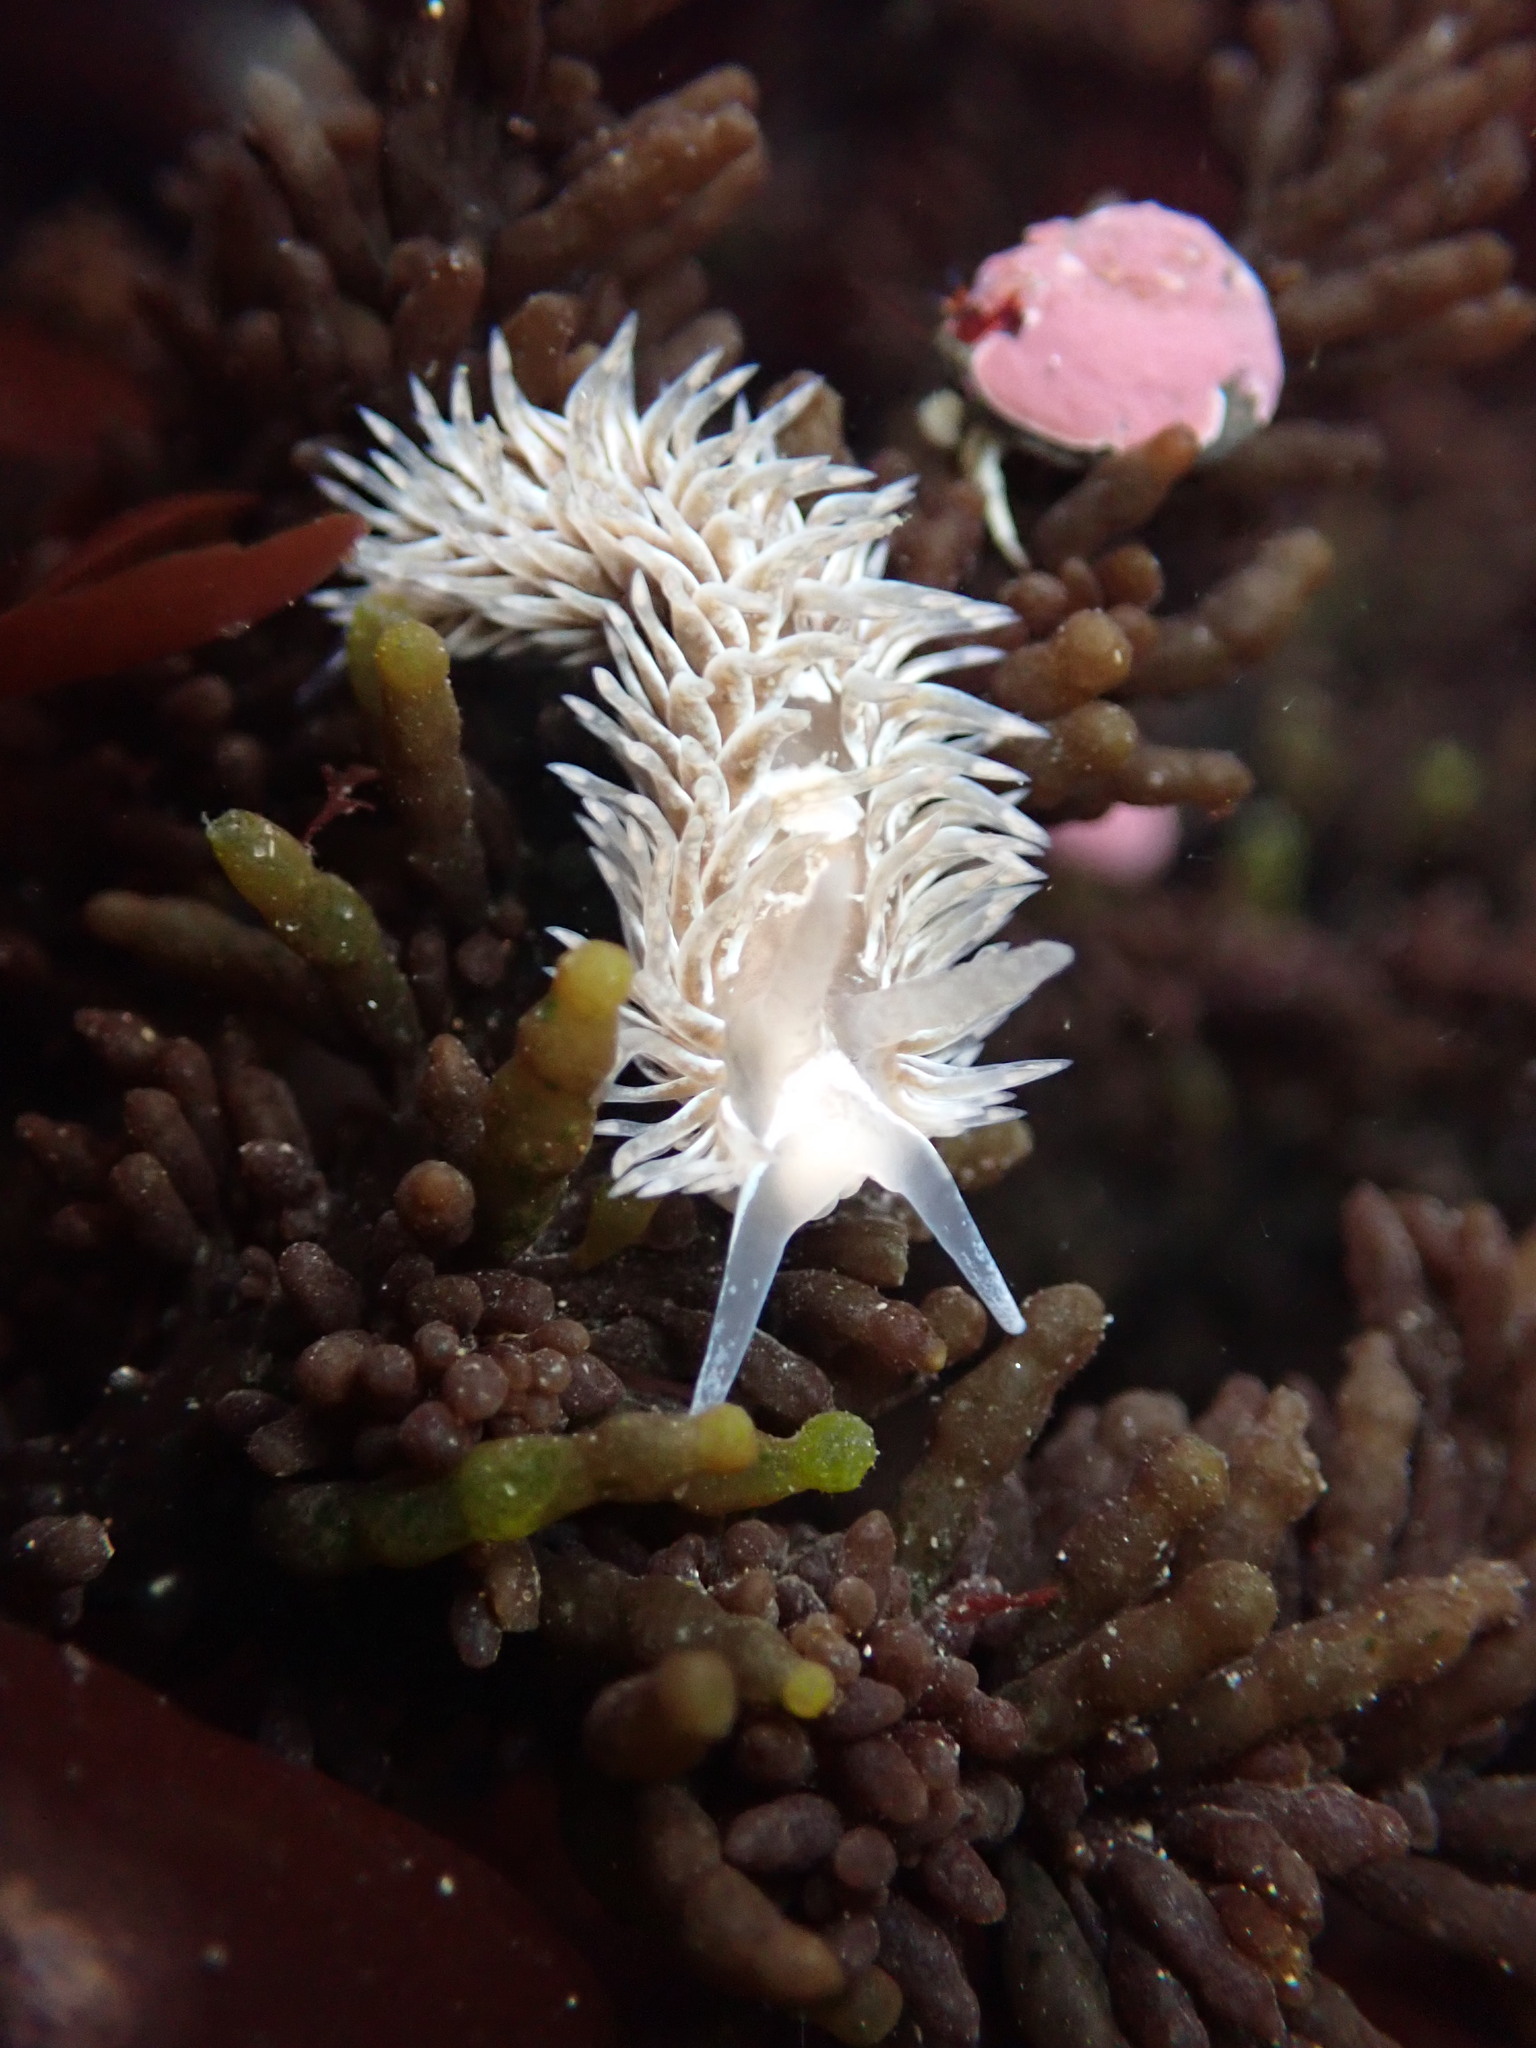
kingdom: Animalia
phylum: Mollusca
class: Gastropoda
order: Nudibranchia
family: Aeolidiidae
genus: Aeolidia
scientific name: Aeolidia loui
